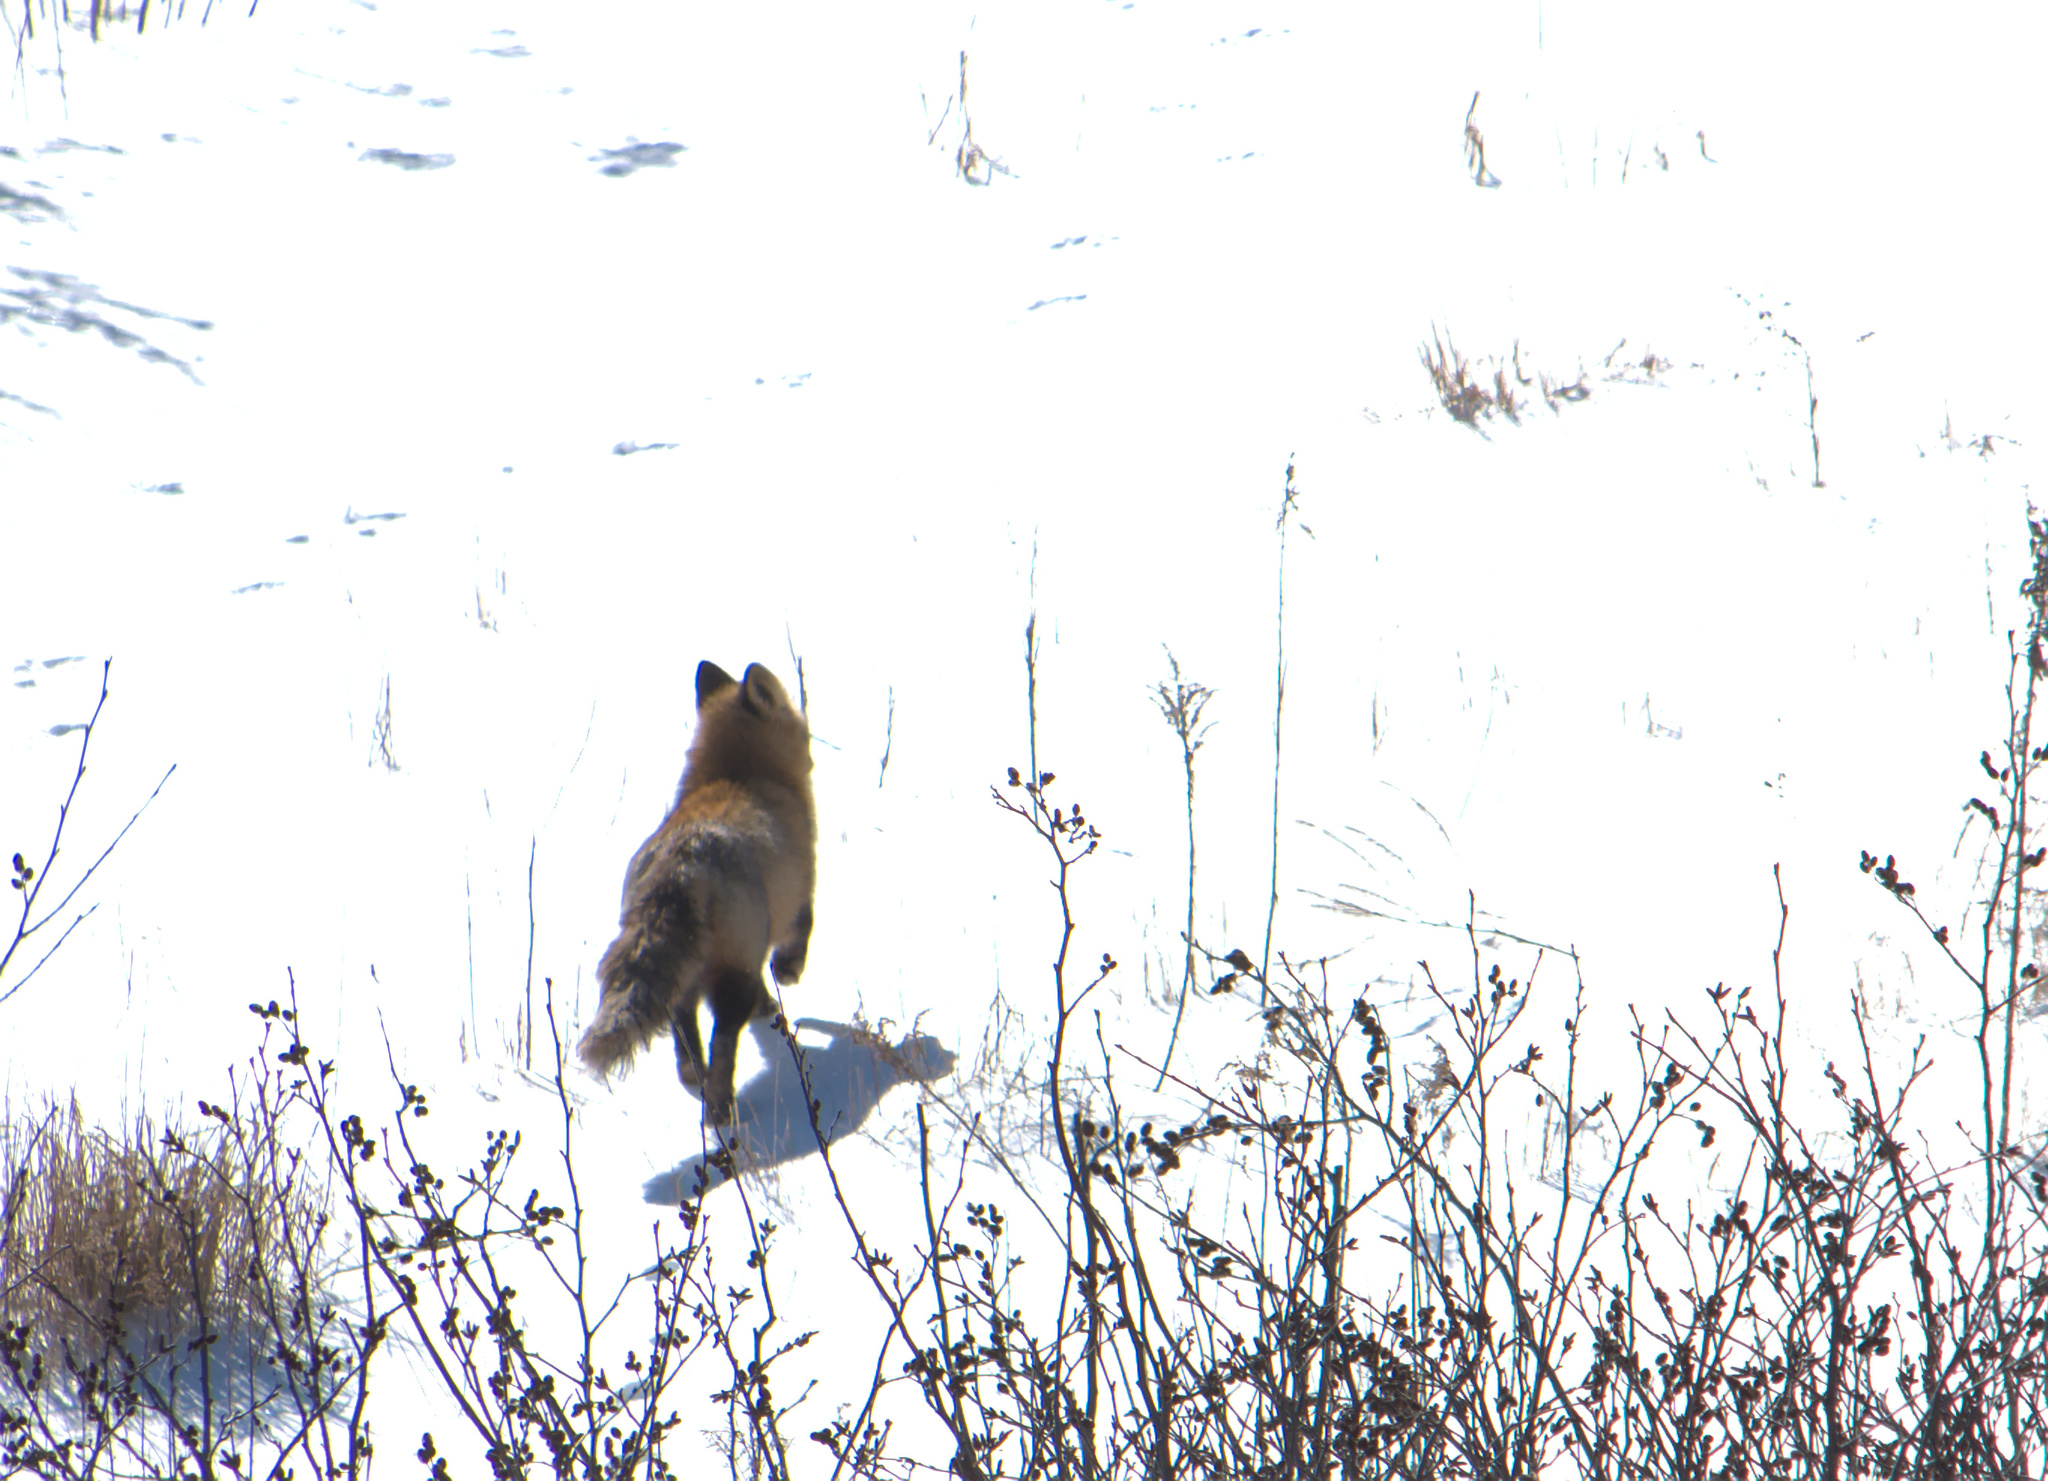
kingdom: Animalia
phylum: Chordata
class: Mammalia
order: Carnivora
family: Canidae
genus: Vulpes
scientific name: Vulpes vulpes
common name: Red fox
